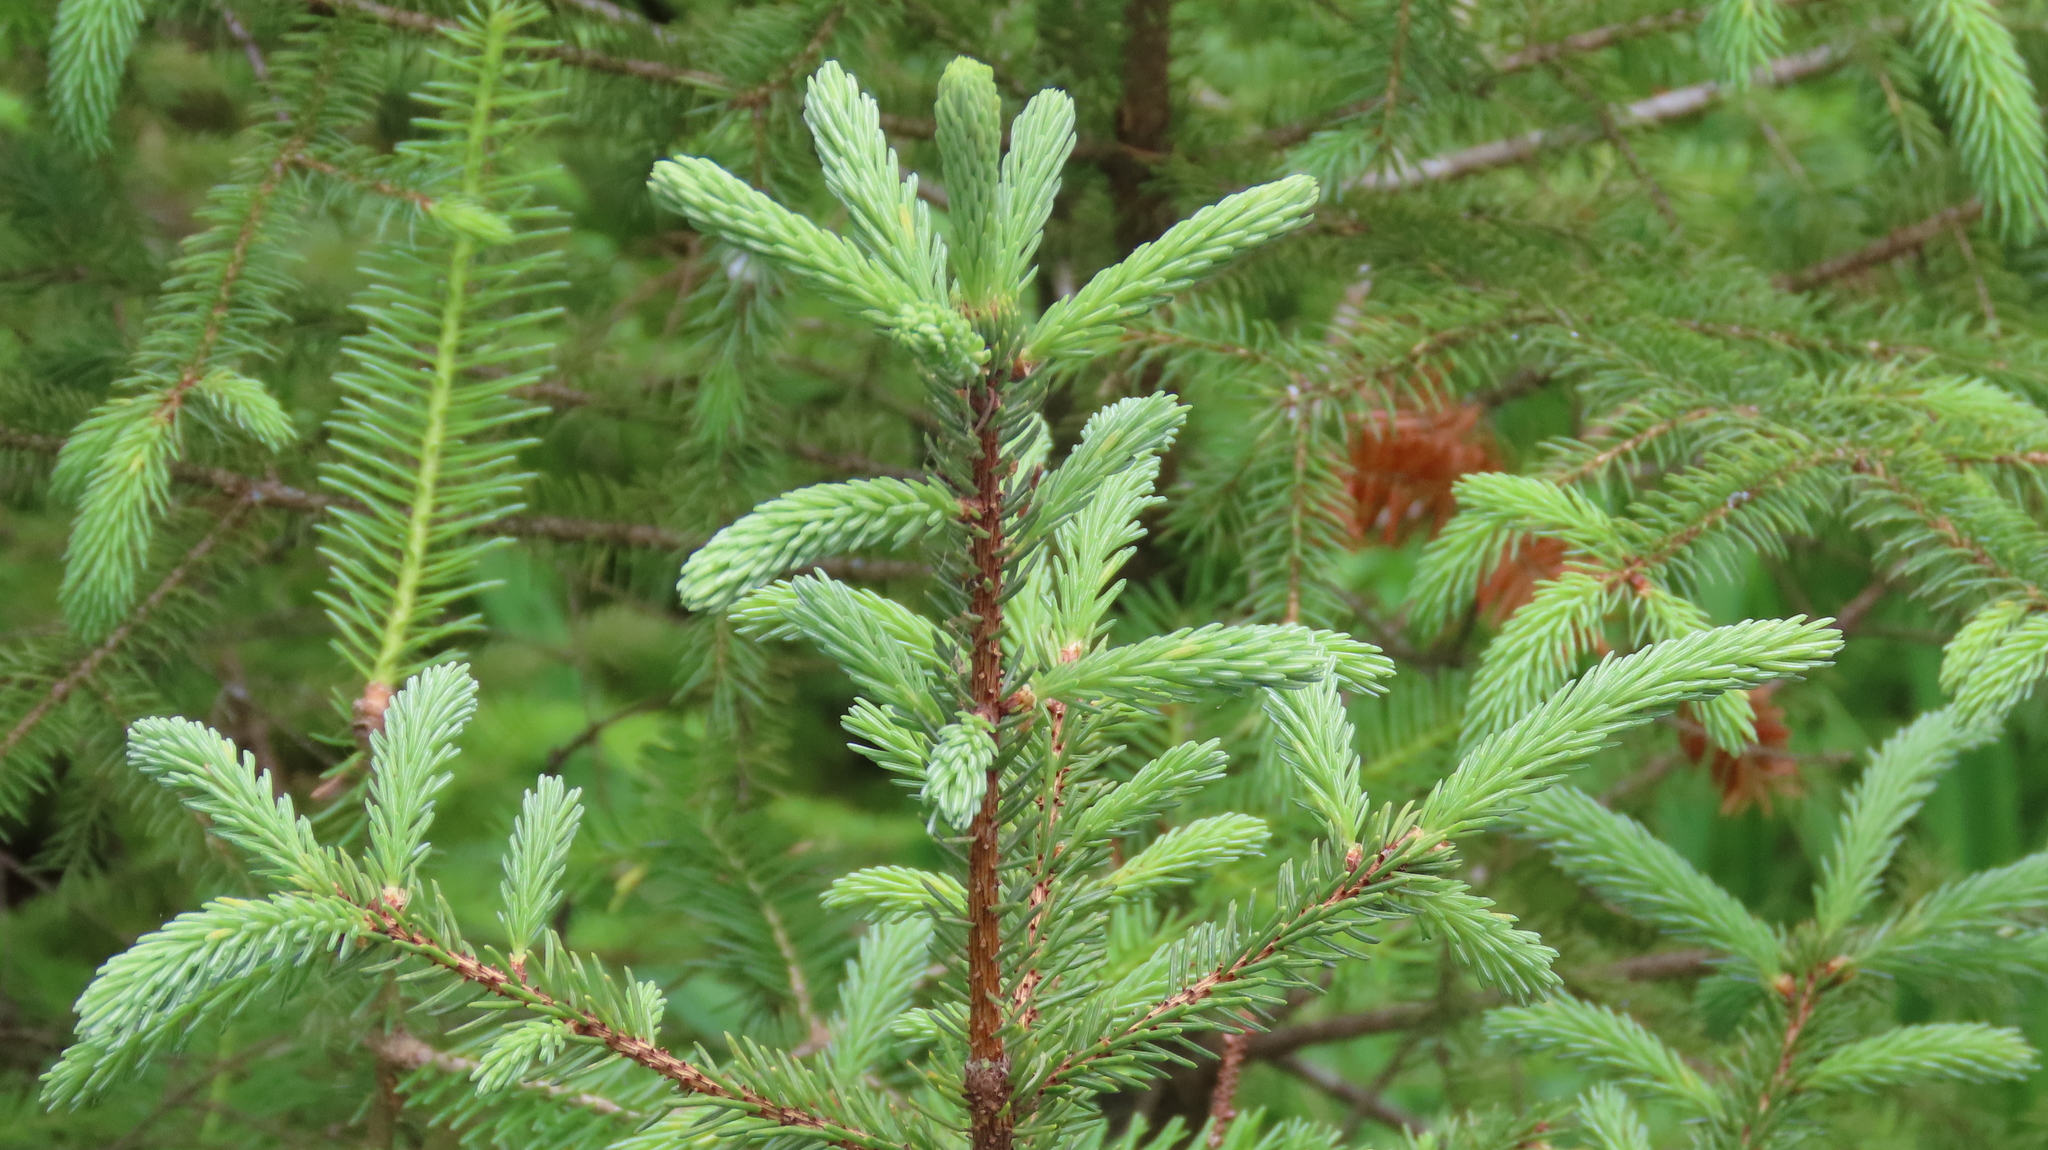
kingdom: Plantae
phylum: Tracheophyta
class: Pinopsida
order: Pinales
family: Pinaceae
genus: Picea
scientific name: Picea glauca
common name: White spruce
